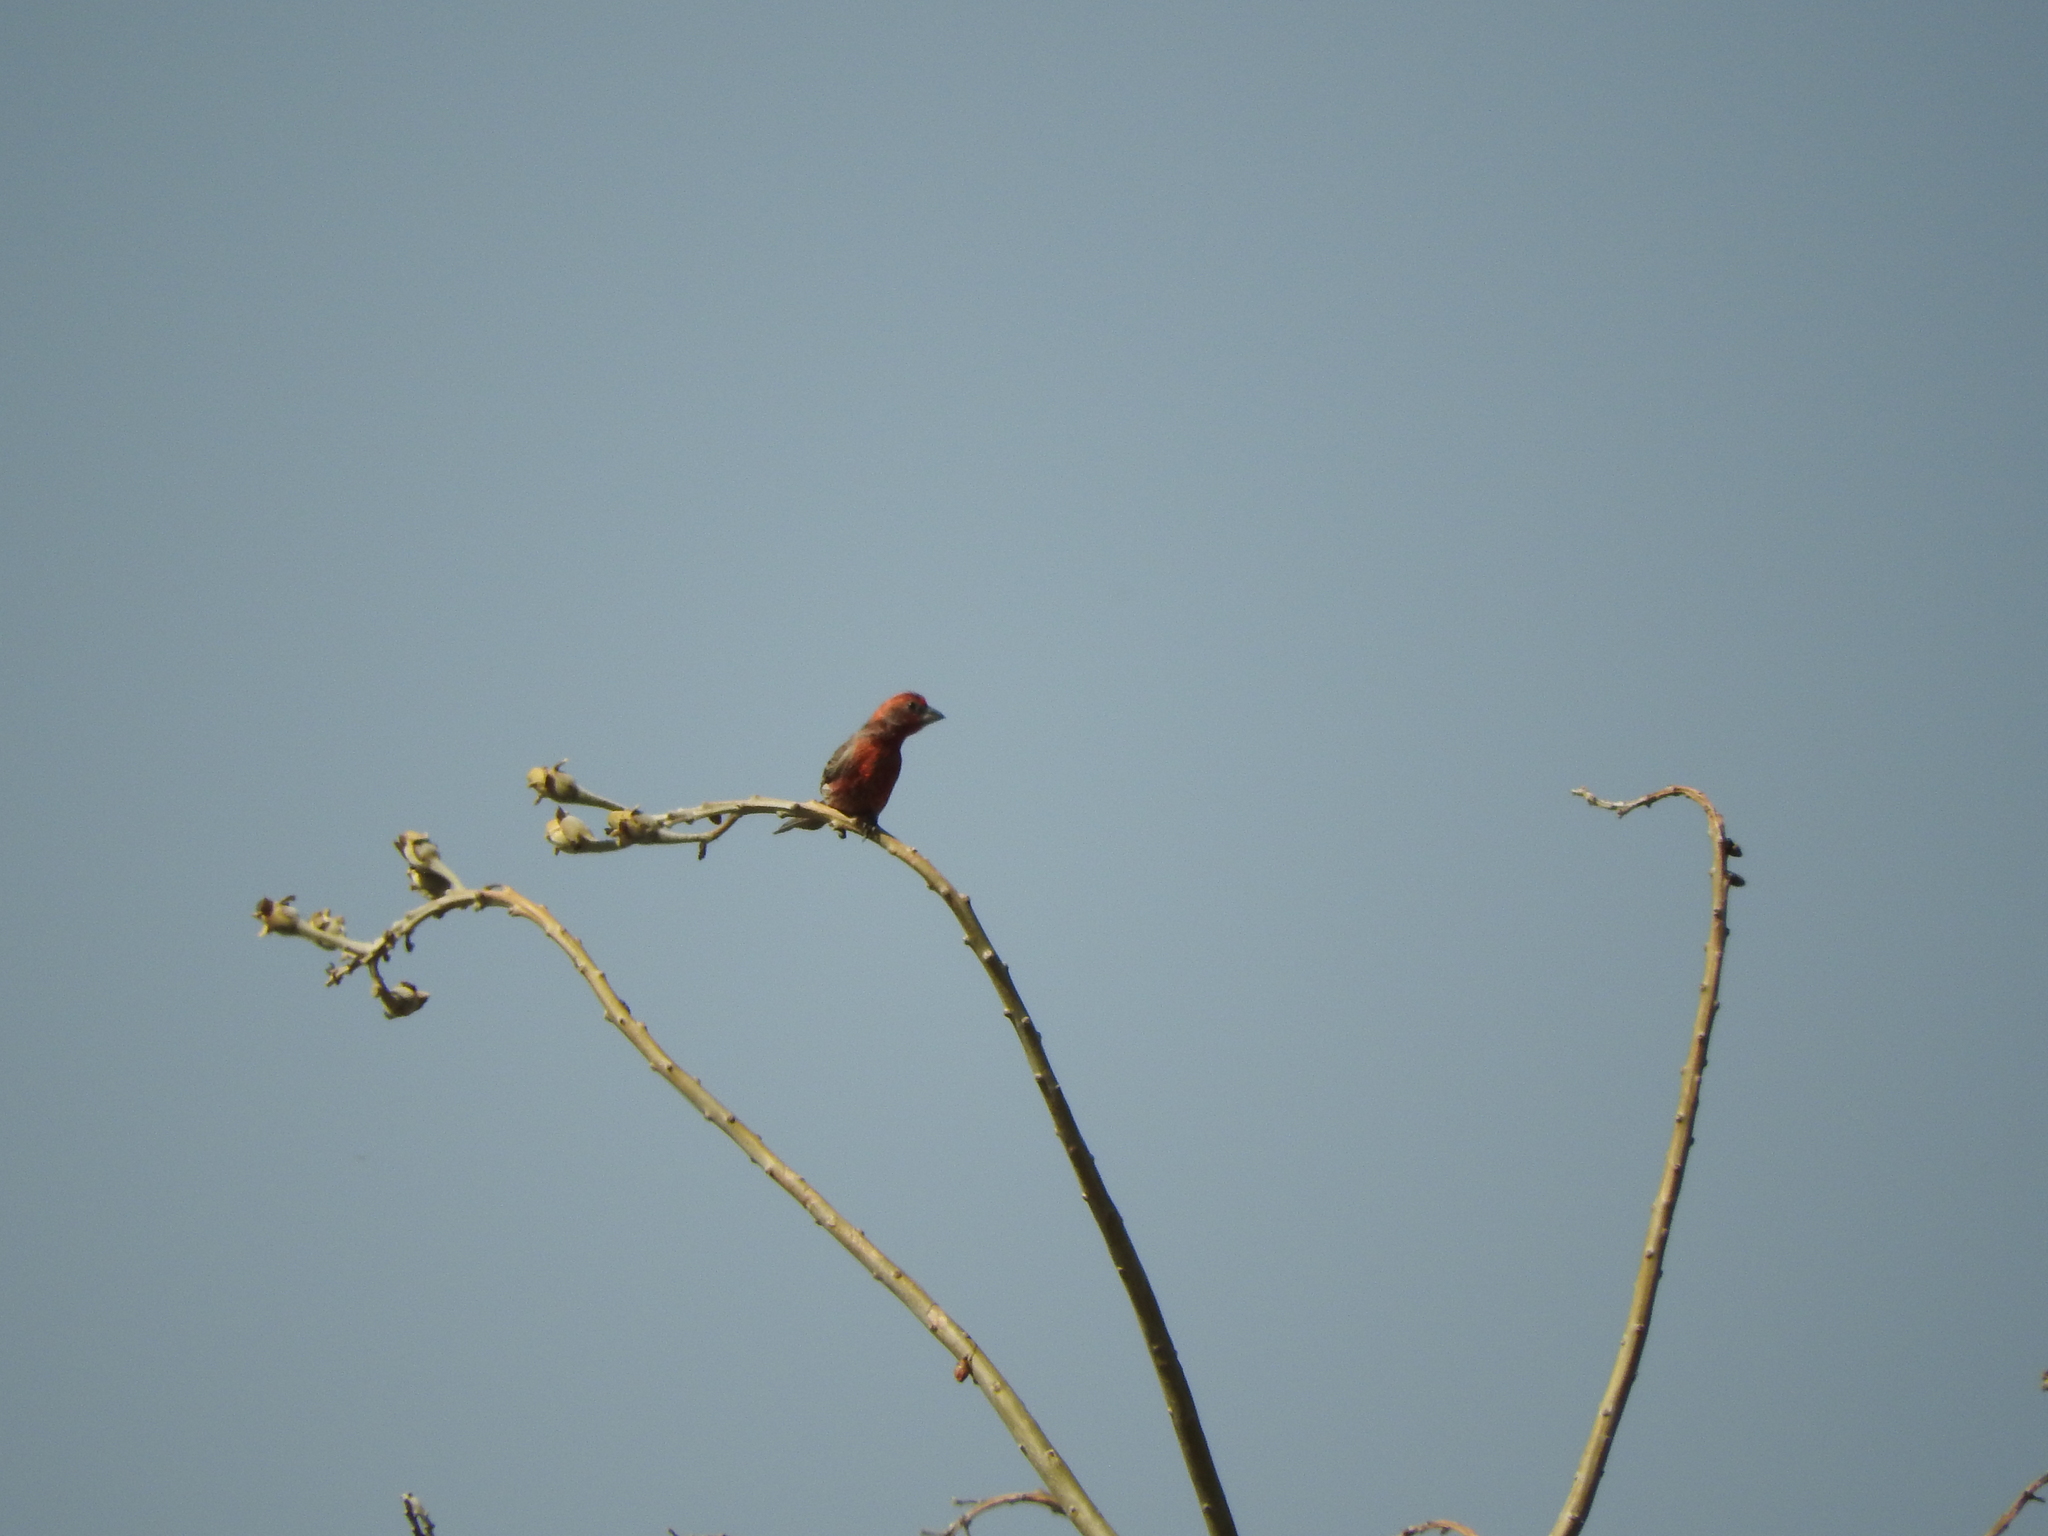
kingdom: Animalia
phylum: Chordata
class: Aves
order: Passeriformes
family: Fringillidae
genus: Haemorhous
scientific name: Haemorhous mexicanus
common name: House finch
